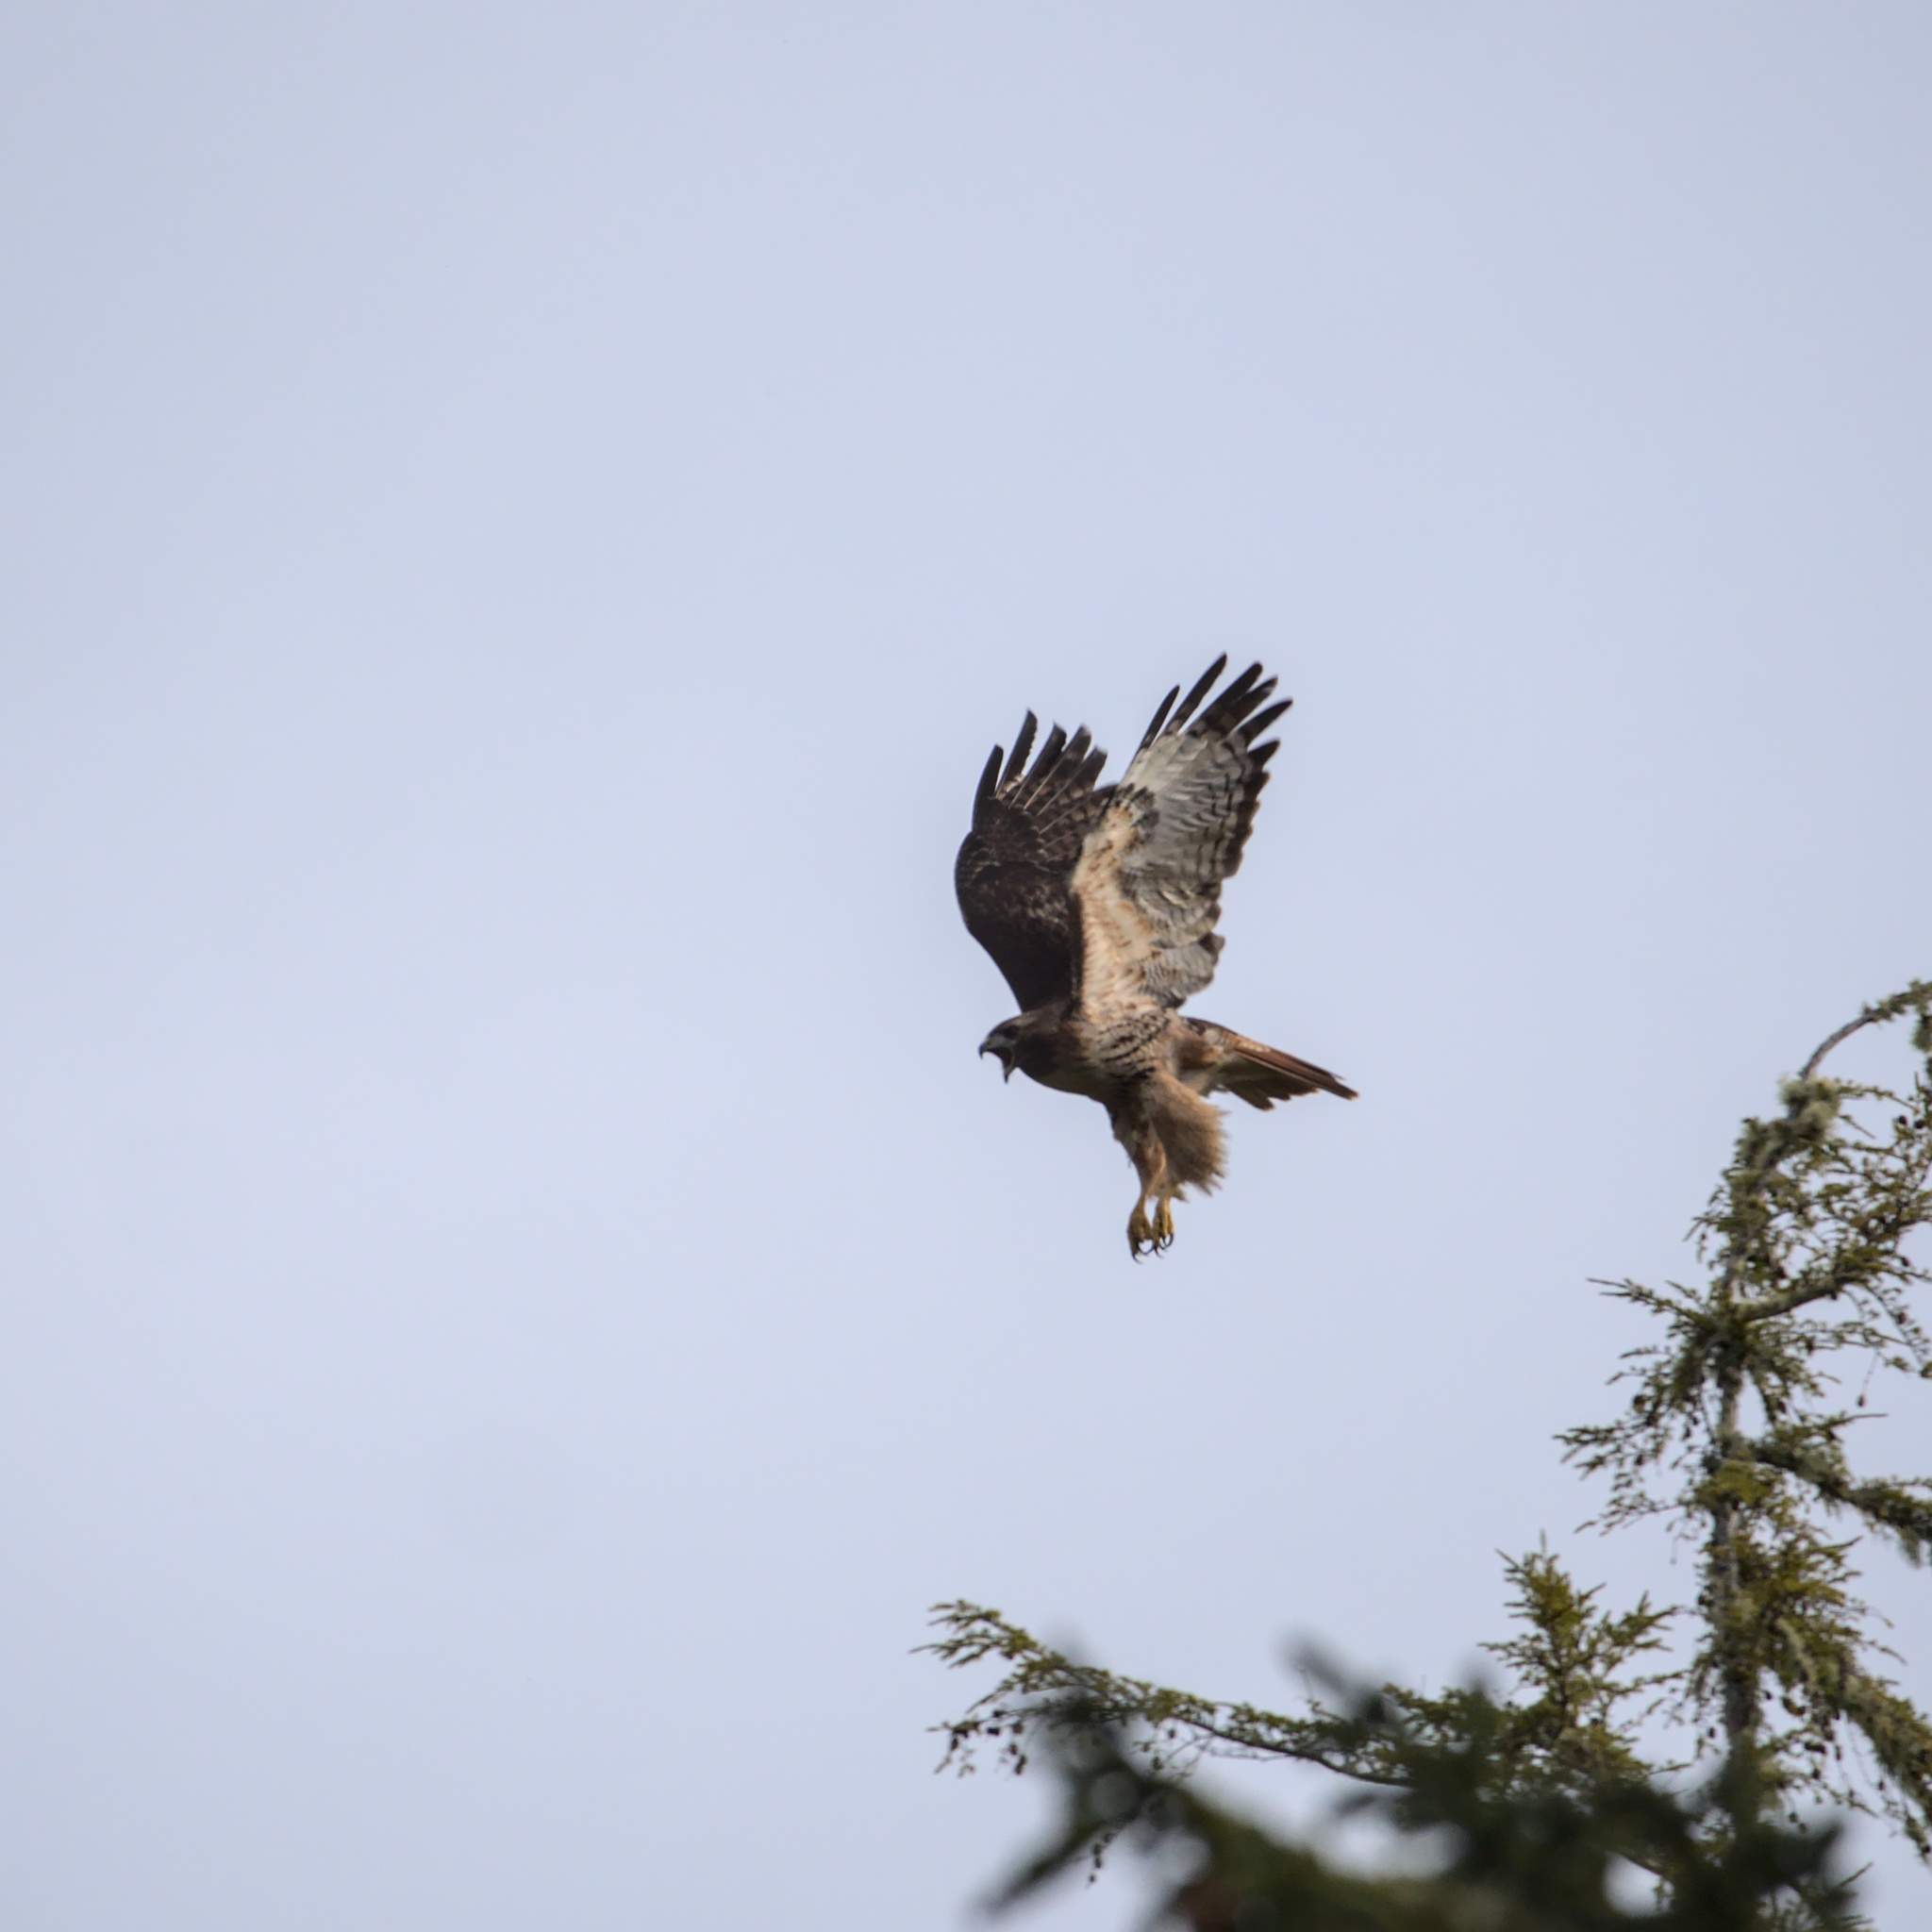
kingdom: Animalia
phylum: Chordata
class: Aves
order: Accipitriformes
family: Accipitridae
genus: Buteo
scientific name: Buteo jamaicensis
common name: Red-tailed hawk
